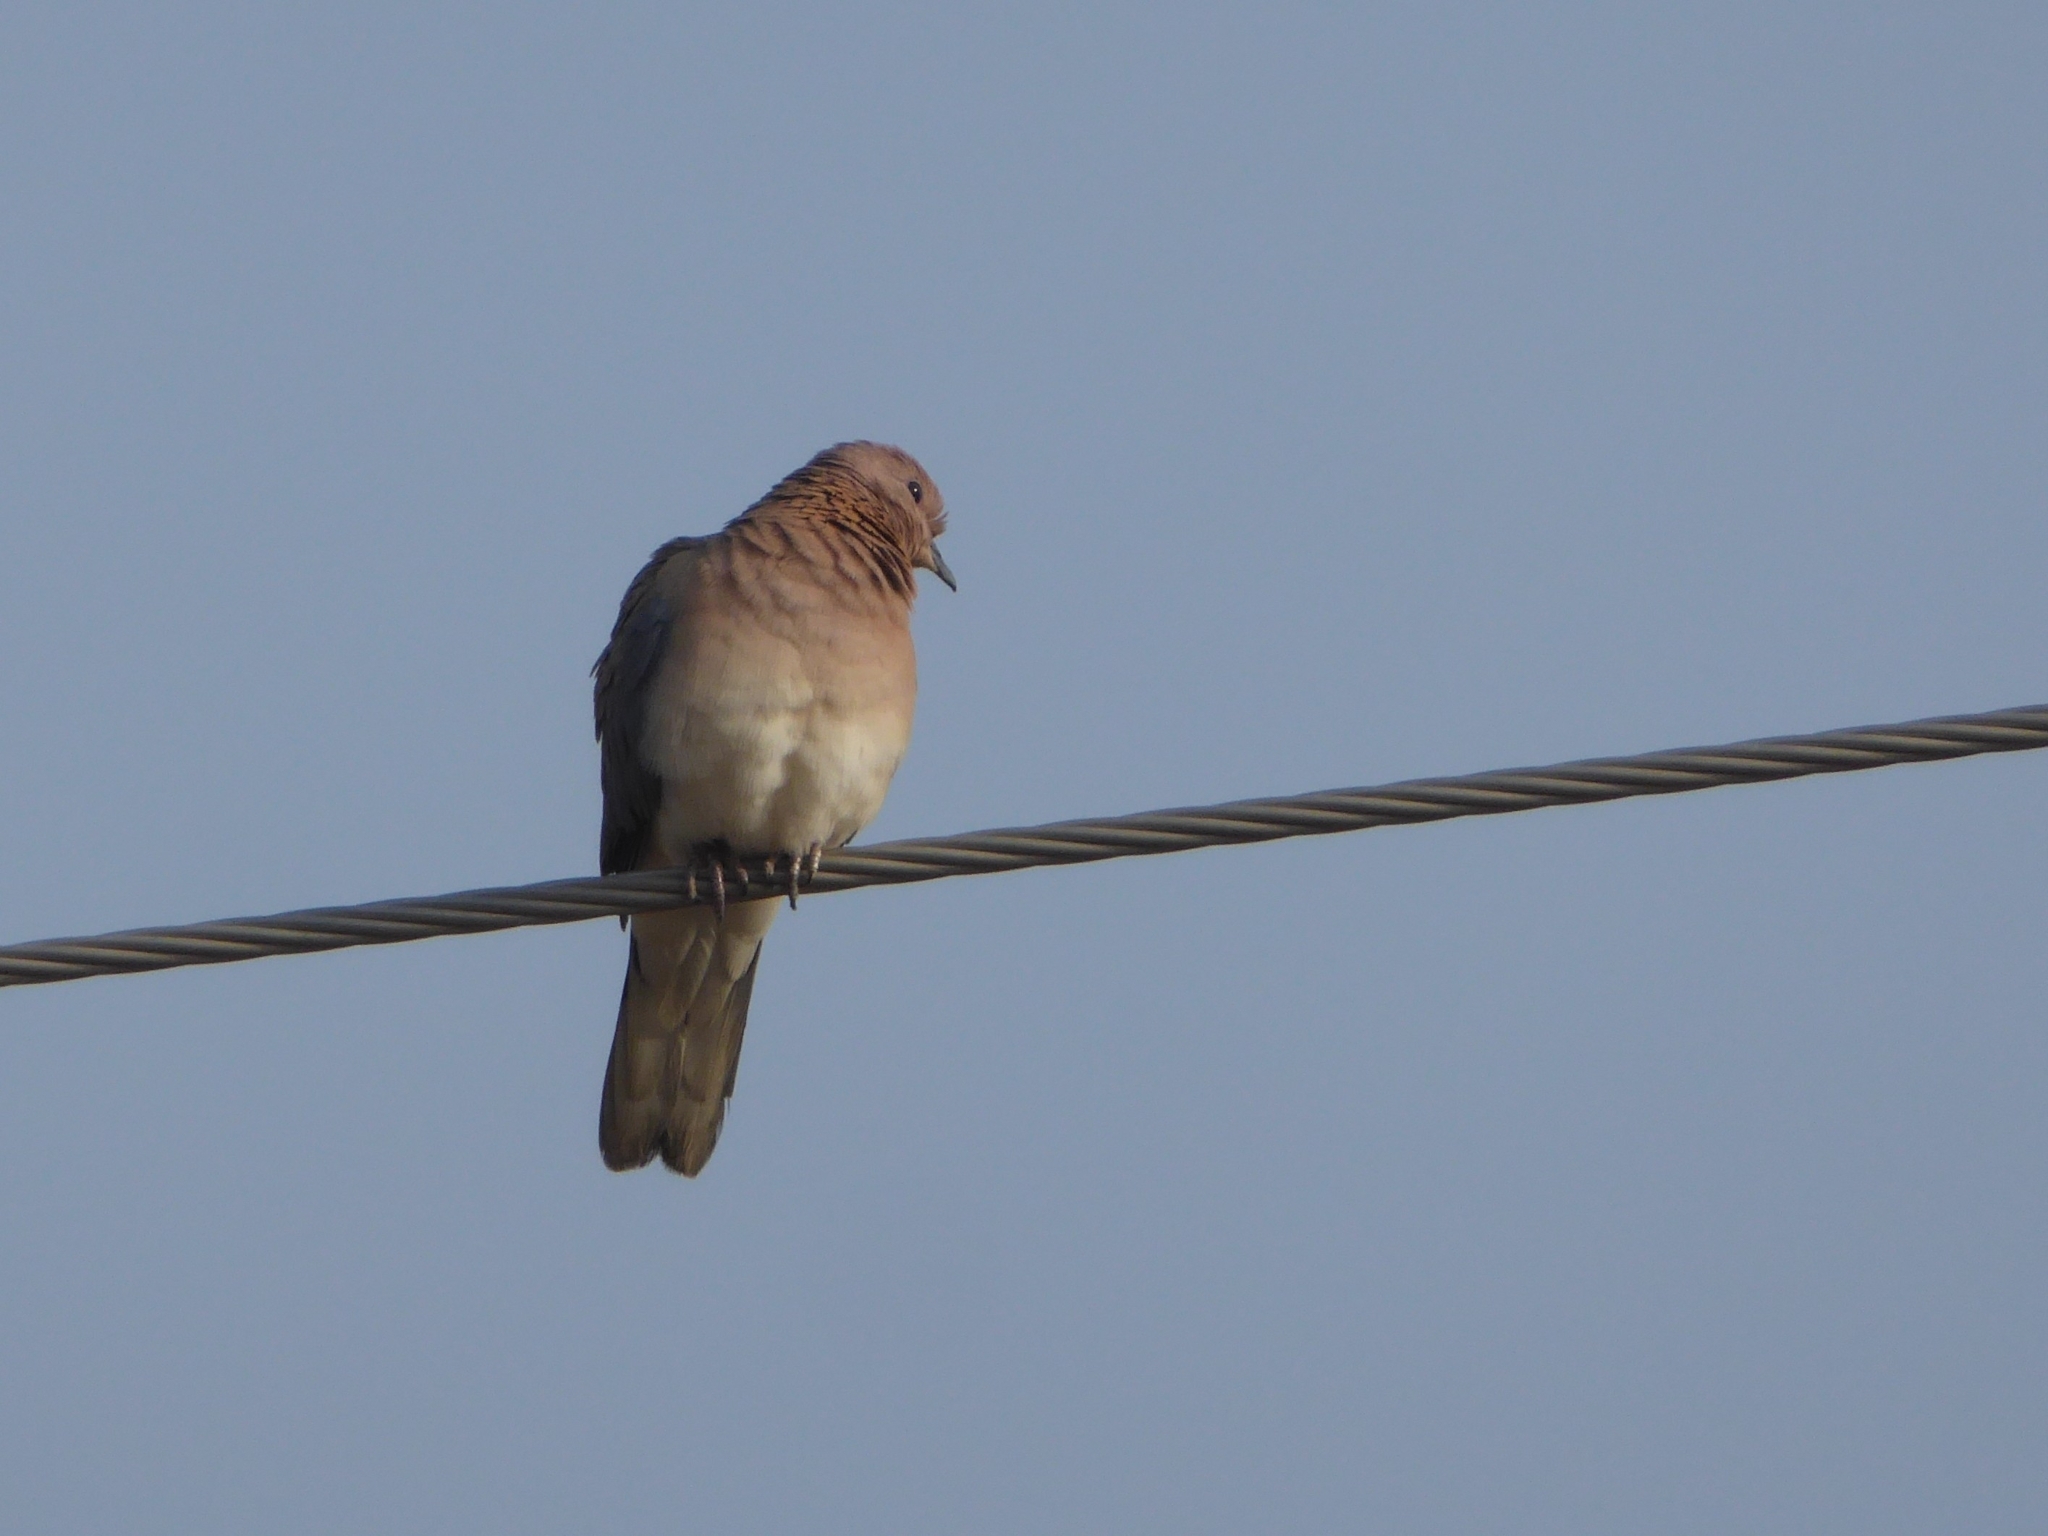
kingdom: Animalia
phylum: Chordata
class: Aves
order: Columbiformes
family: Columbidae
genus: Spilopelia
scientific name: Spilopelia senegalensis
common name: Laughing dove
